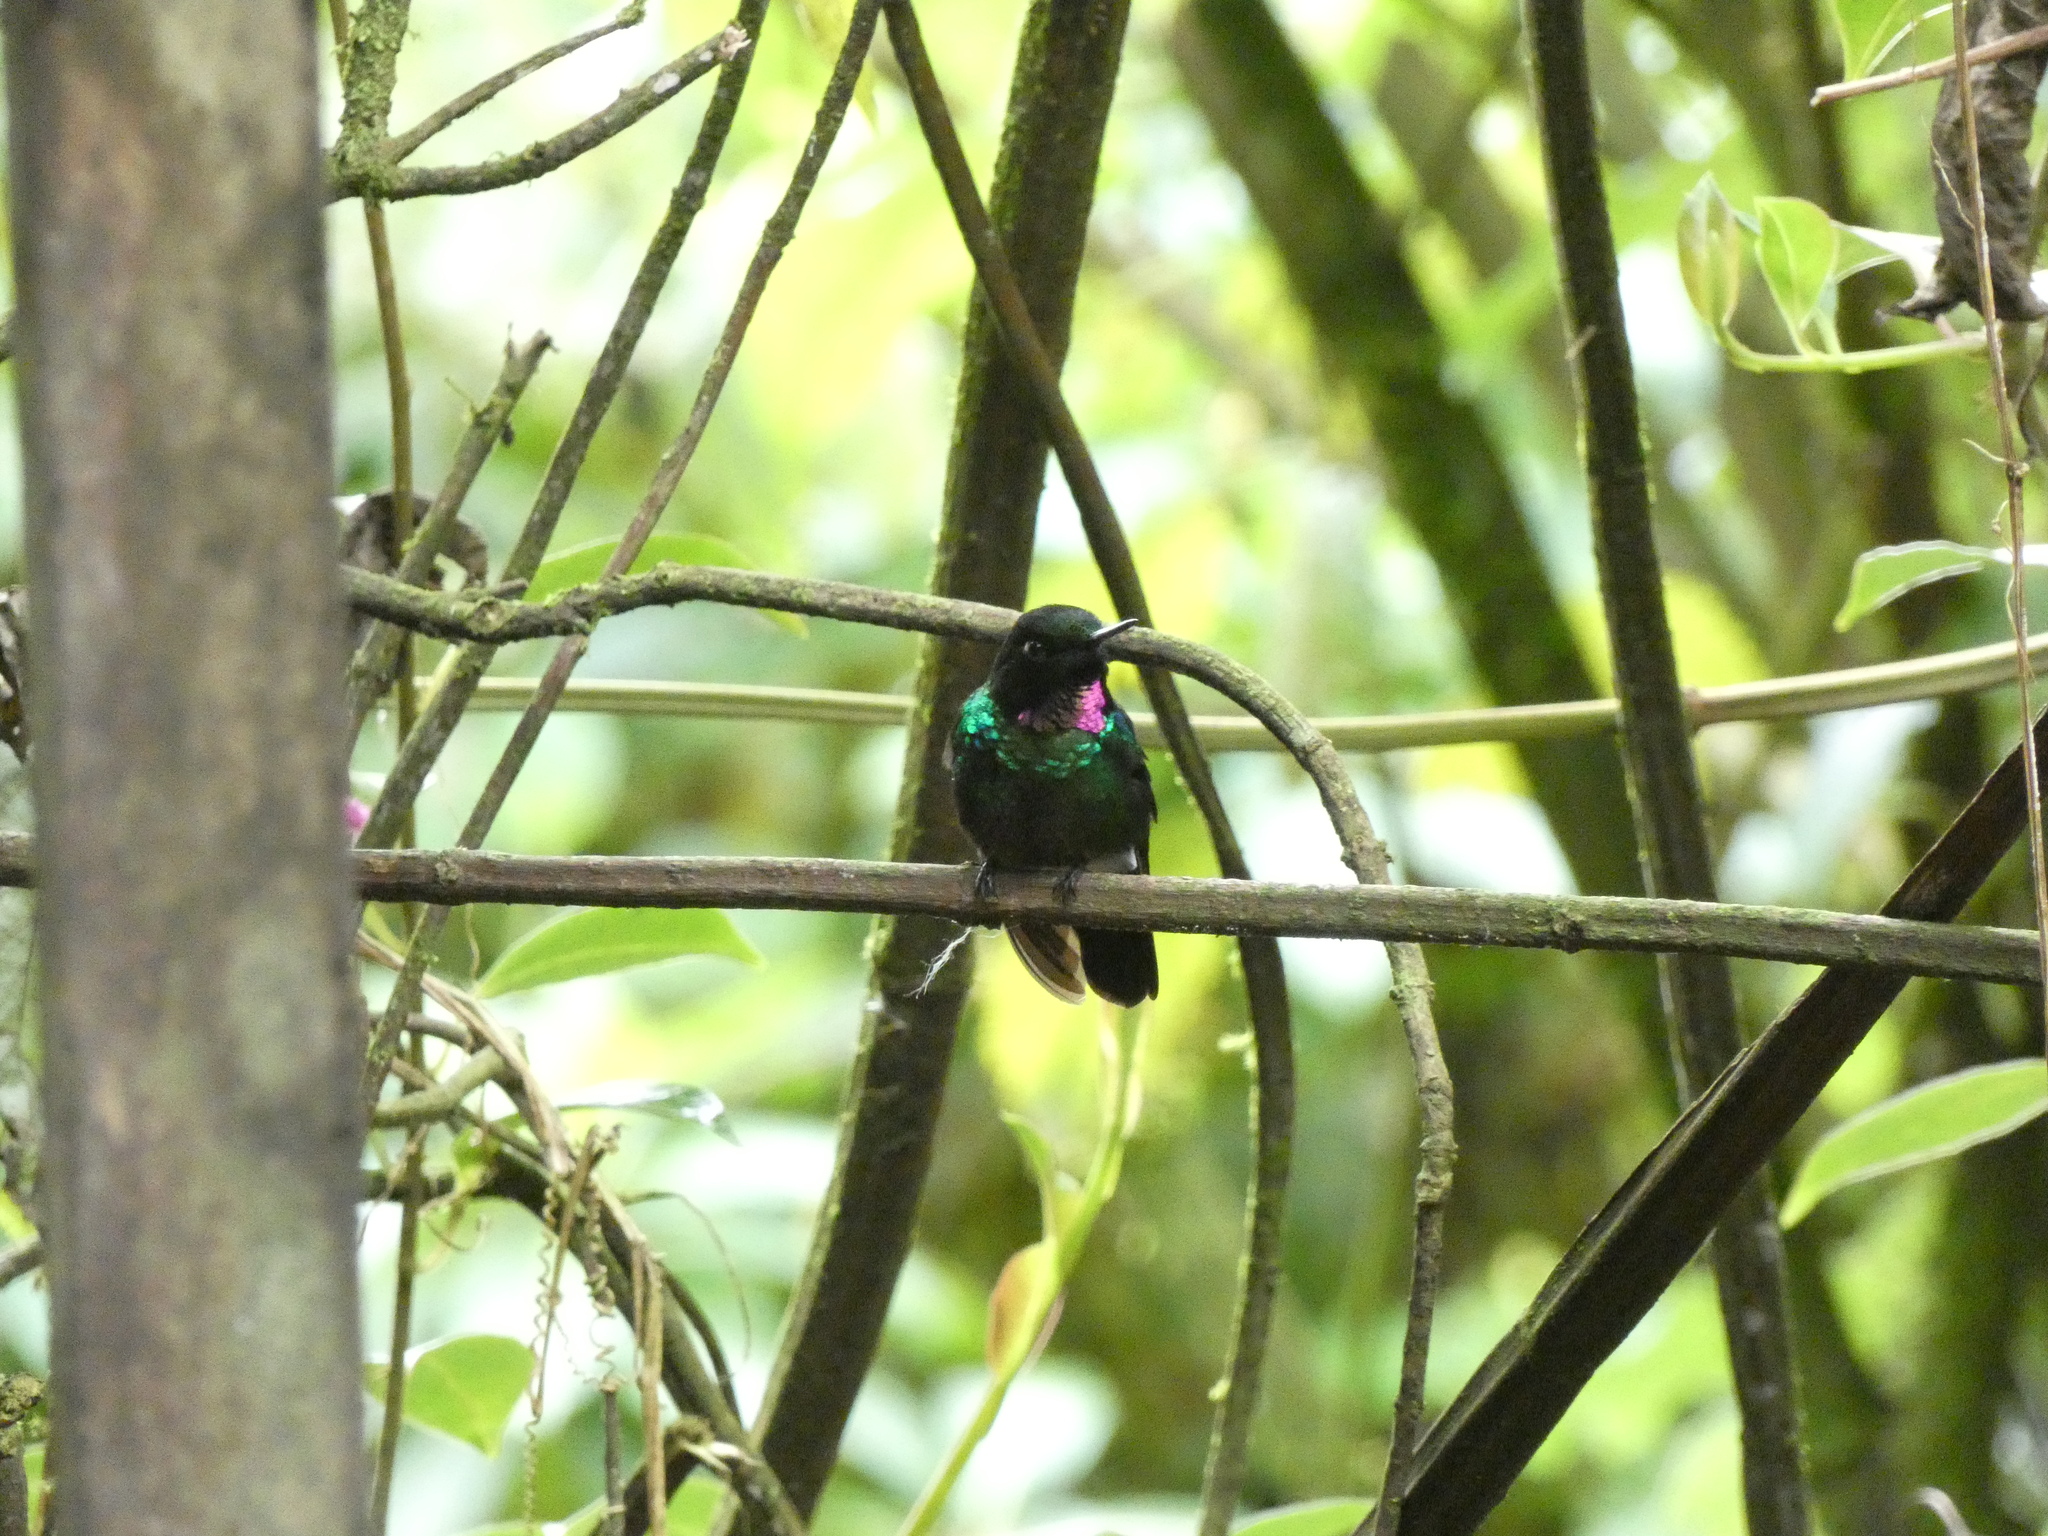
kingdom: Animalia
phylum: Chordata
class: Aves
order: Apodiformes
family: Trochilidae
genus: Heliangelus
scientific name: Heliangelus exortis
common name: Tourmaline sunangel
